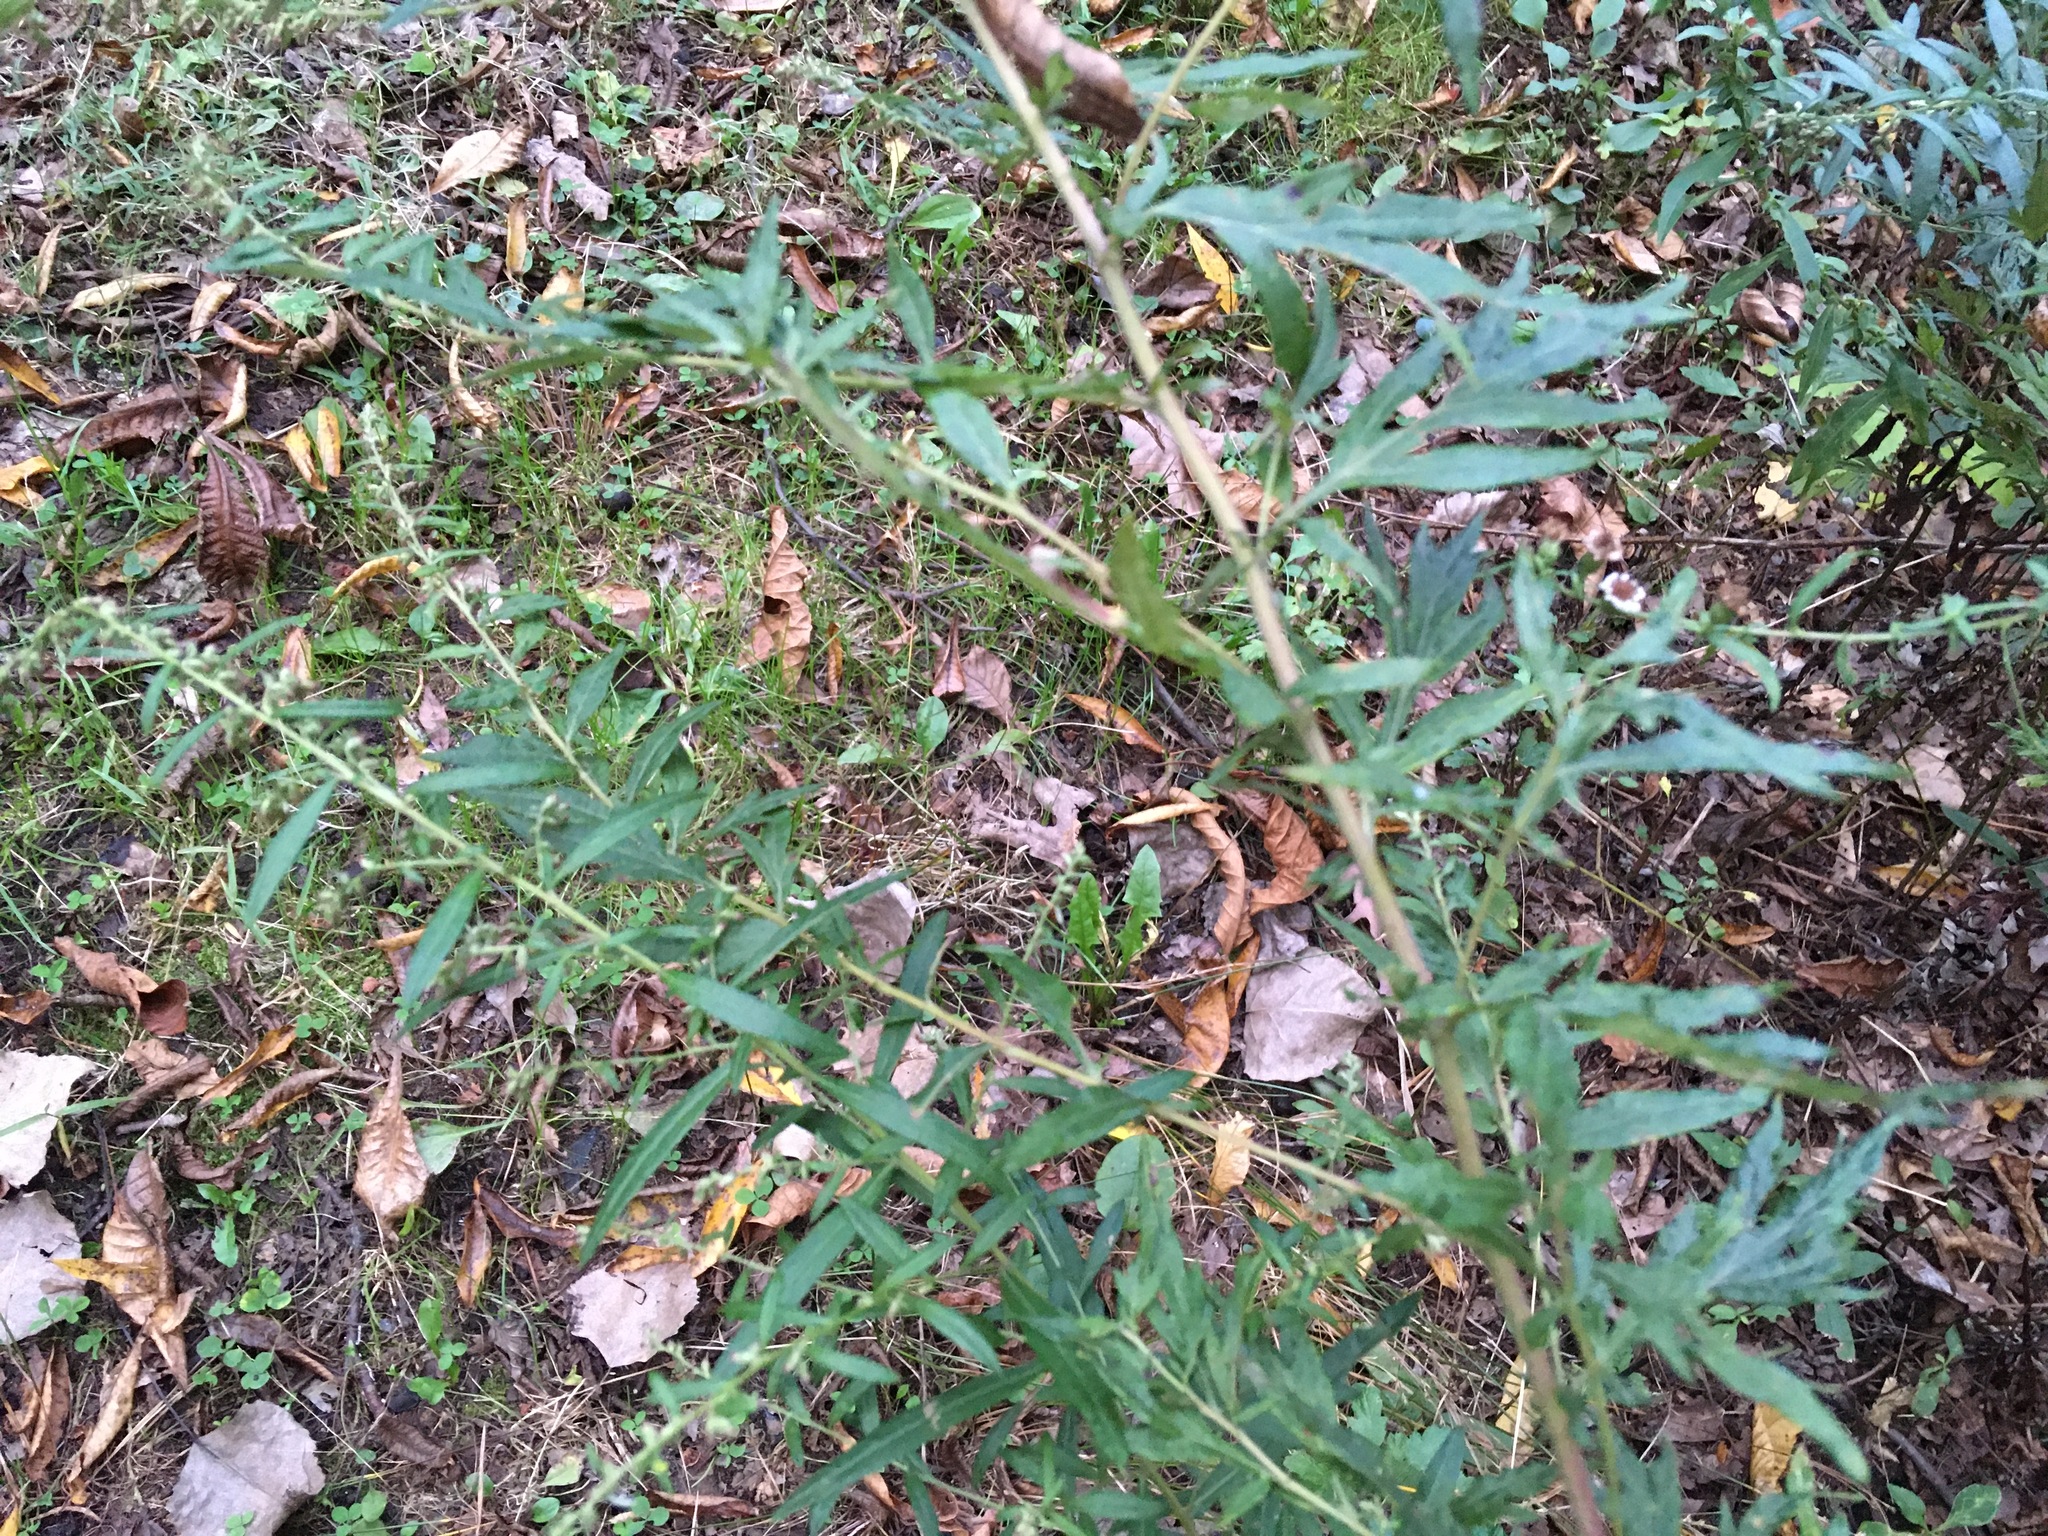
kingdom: Plantae
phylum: Tracheophyta
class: Magnoliopsida
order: Asterales
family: Asteraceae
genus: Artemisia
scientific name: Artemisia vulgaris
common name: Mugwort
